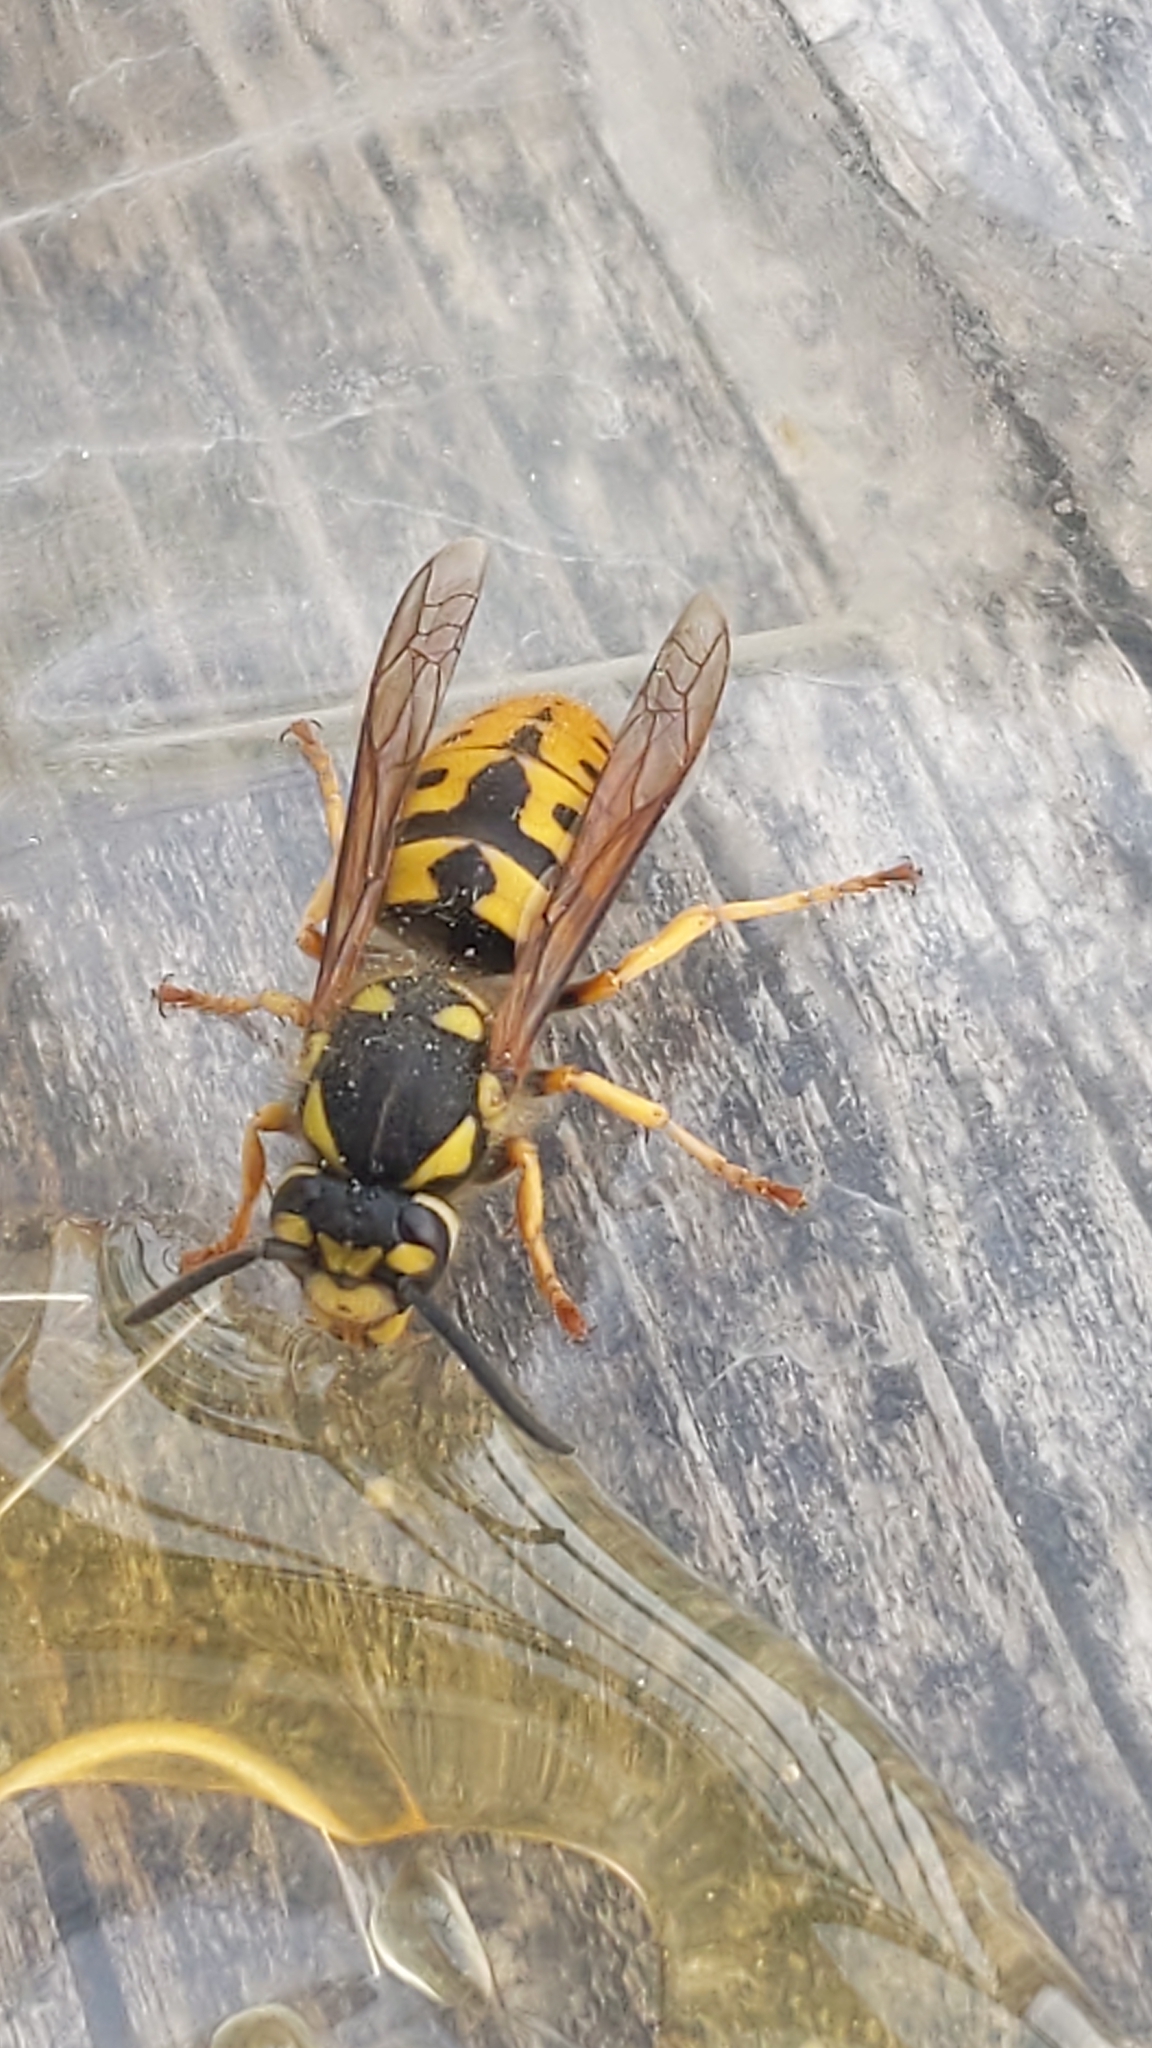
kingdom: Animalia
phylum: Arthropoda
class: Insecta
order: Hymenoptera
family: Vespidae
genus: Vespula
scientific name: Vespula germanica
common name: German wasp
